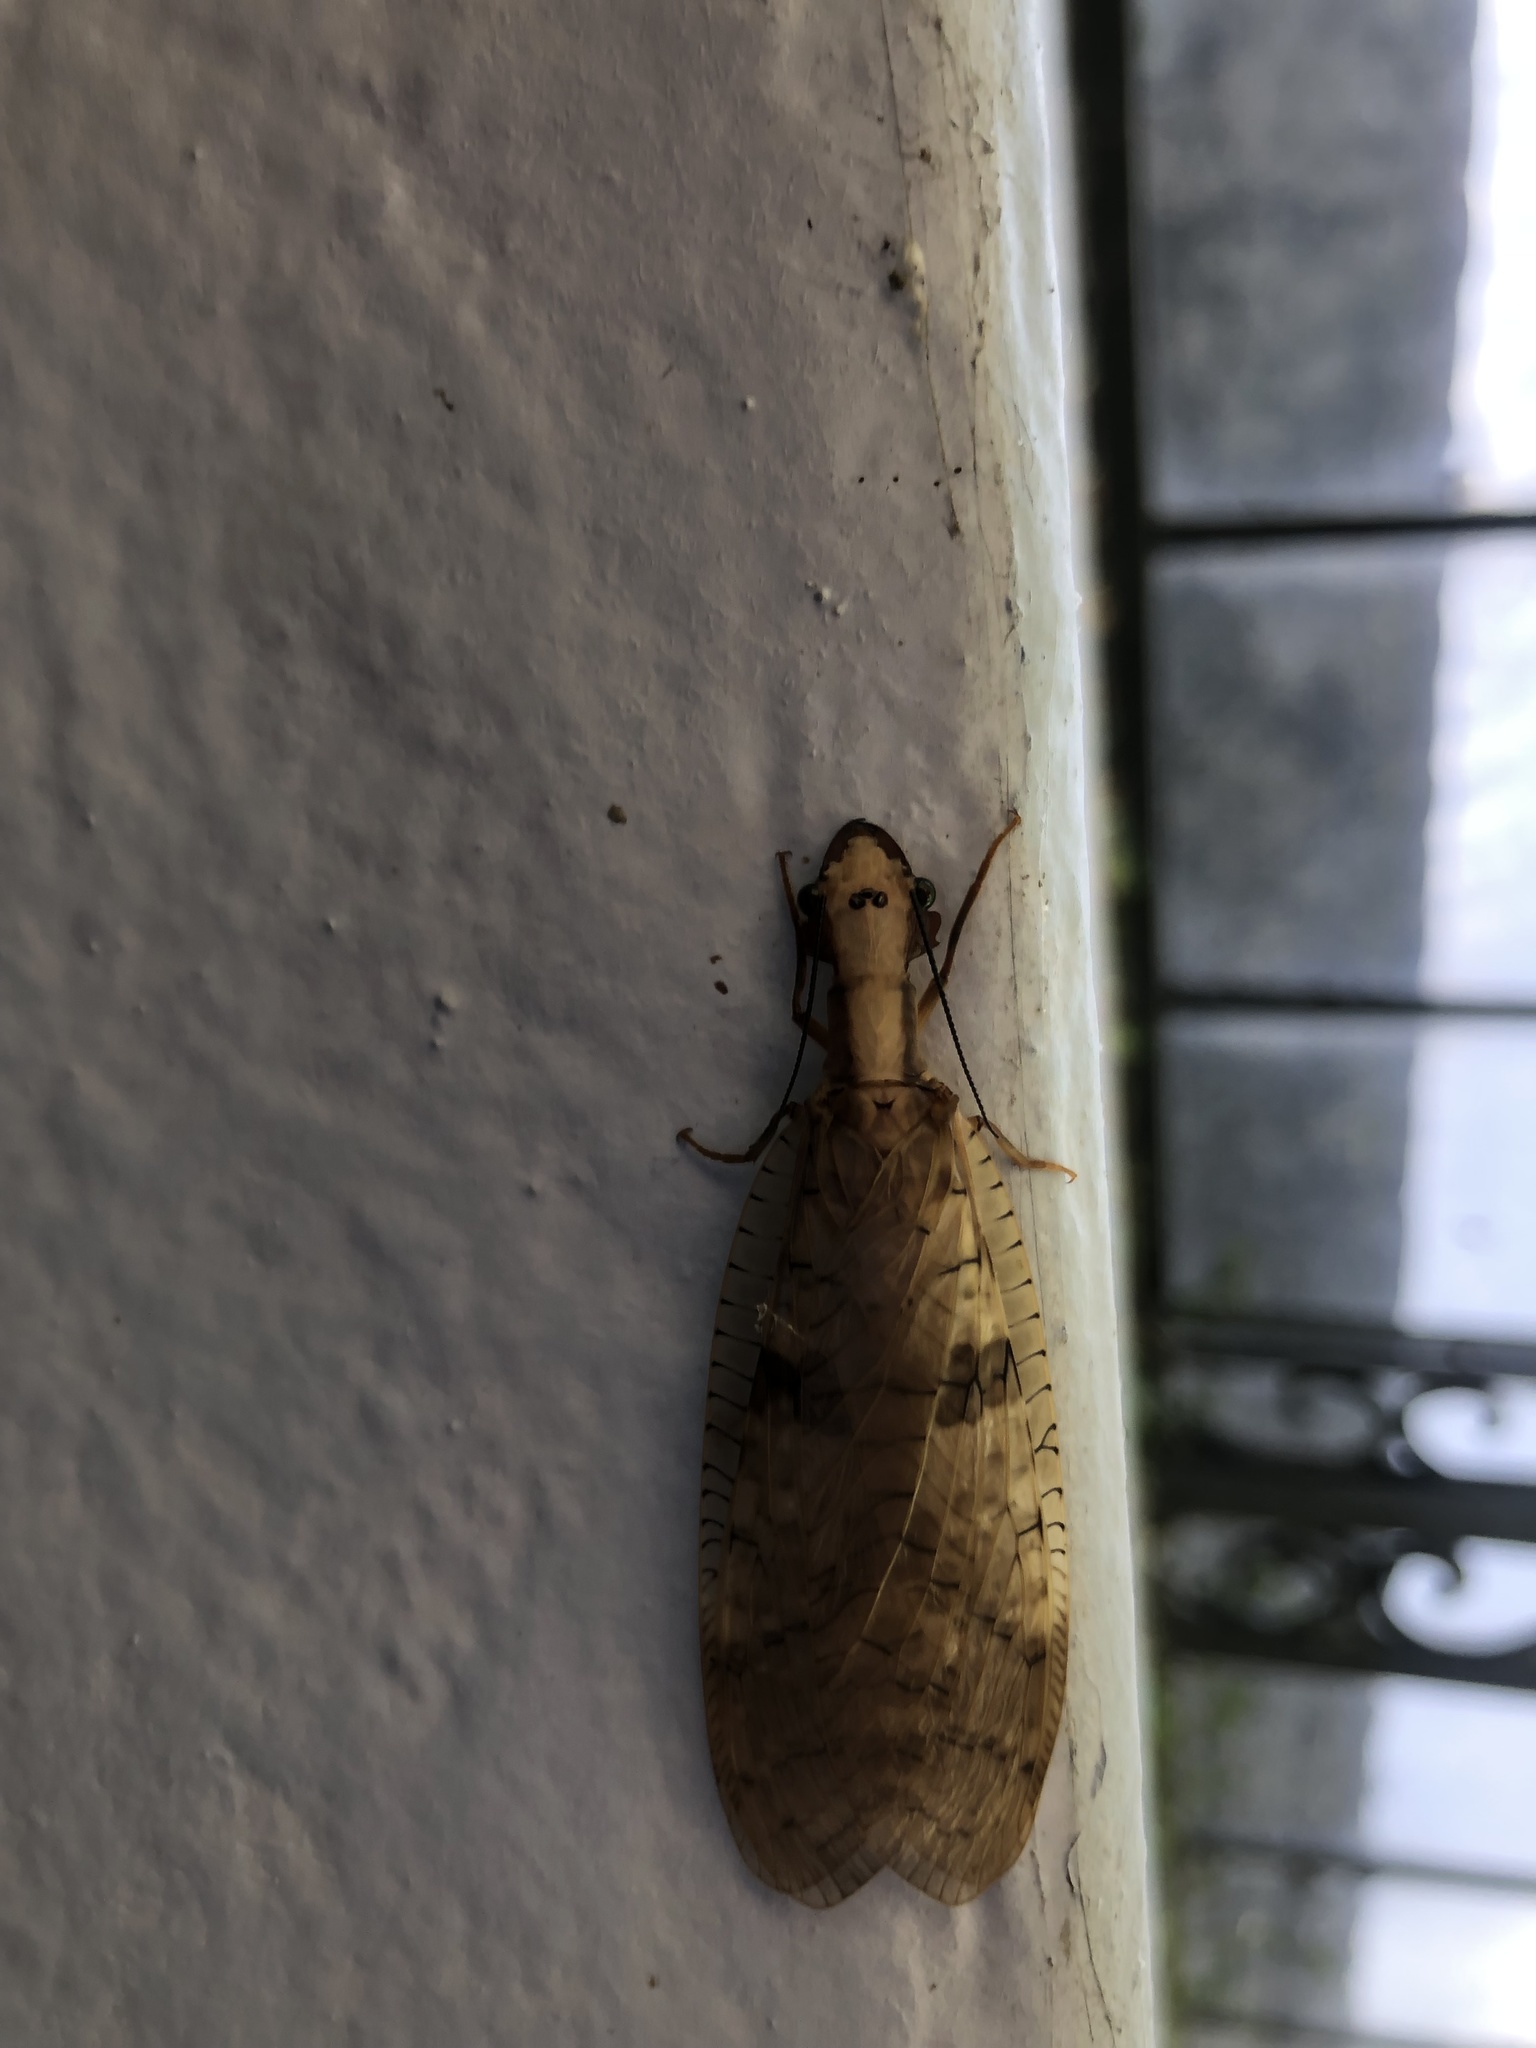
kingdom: Animalia
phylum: Arthropoda
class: Insecta
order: Megaloptera
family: Corydalidae
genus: Platyneuromus
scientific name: Platyneuromus soror
